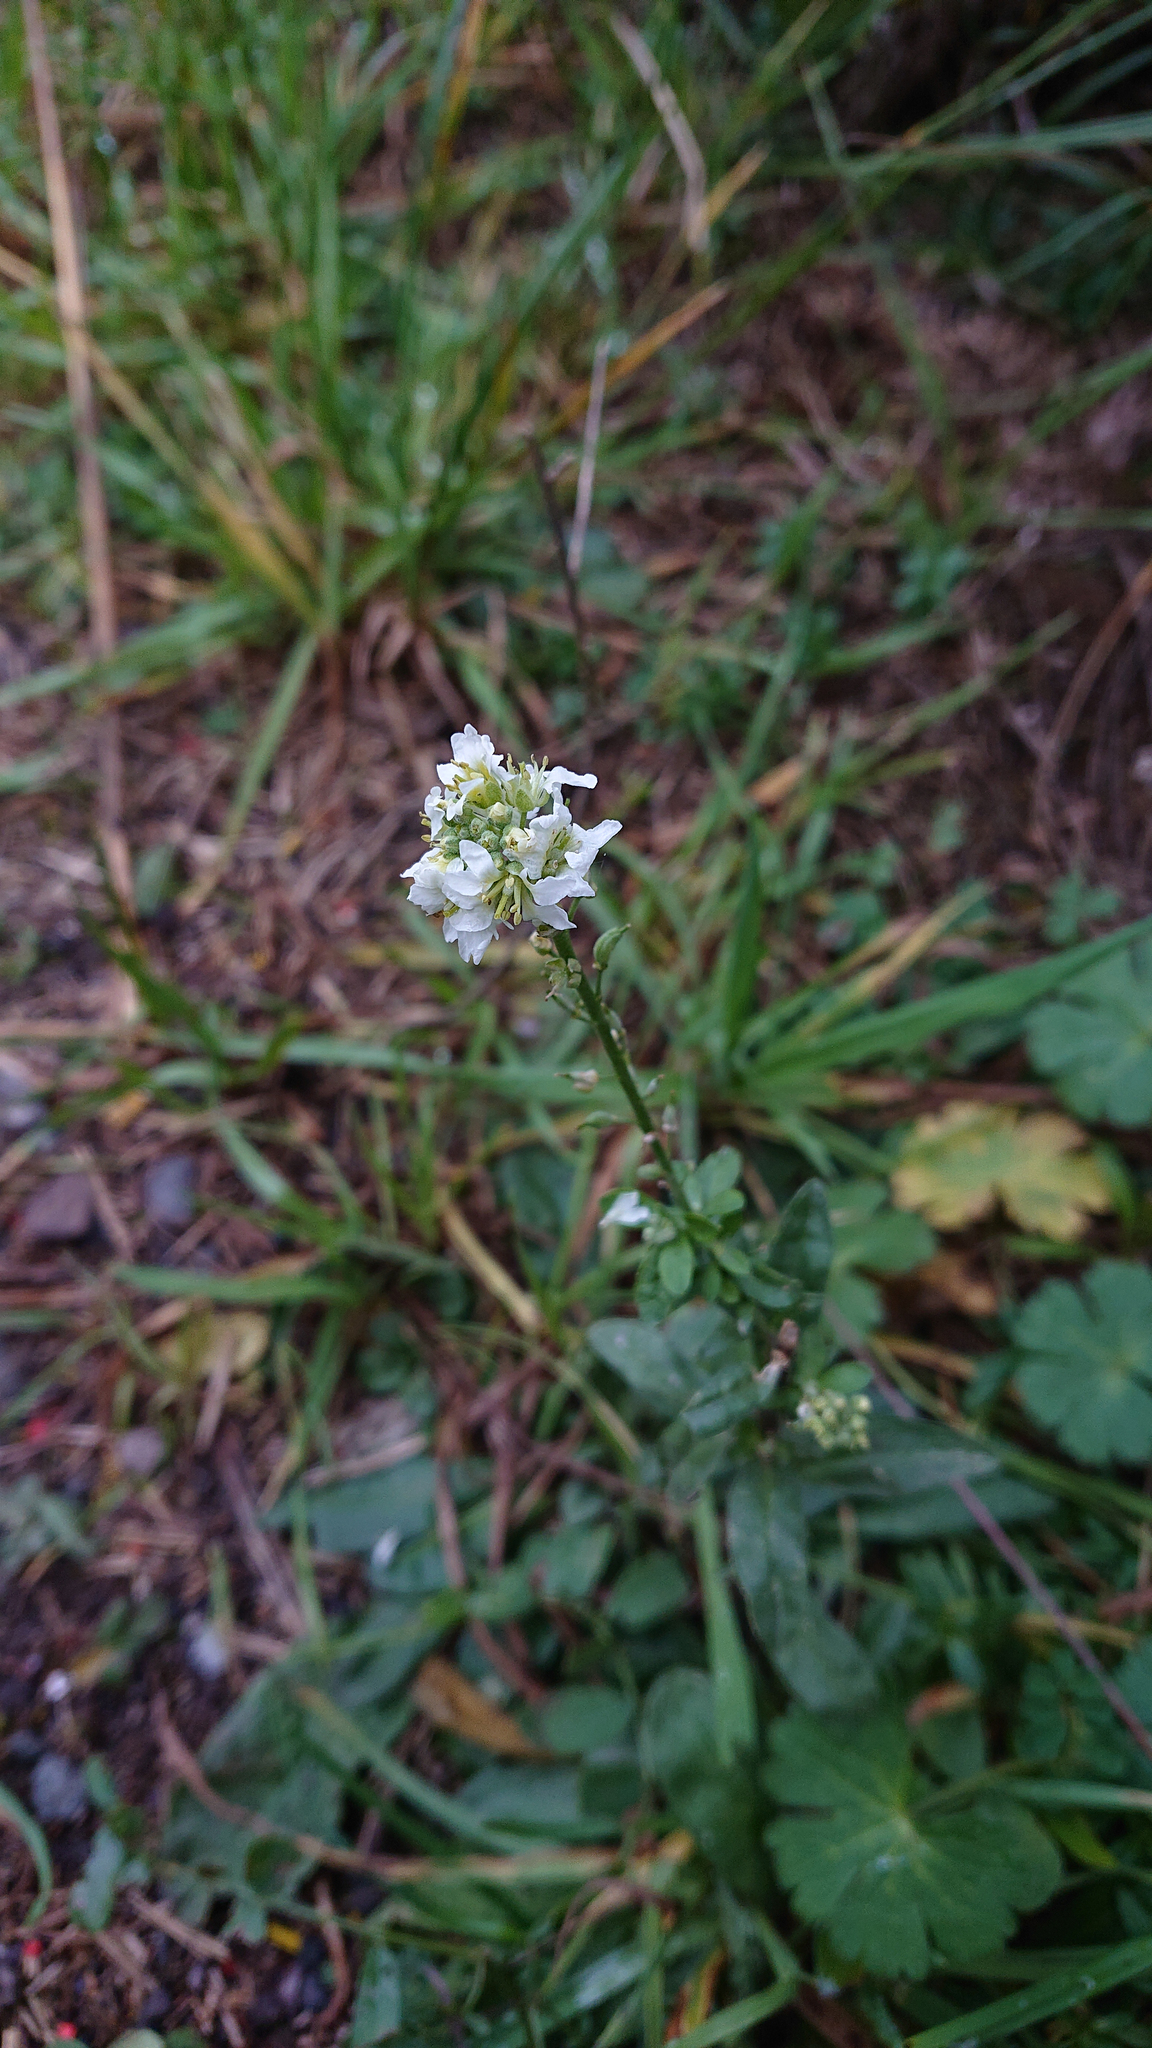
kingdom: Plantae
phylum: Tracheophyta
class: Magnoliopsida
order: Brassicales
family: Brassicaceae
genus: Berteroa
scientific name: Berteroa incana
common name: Hoary alison
